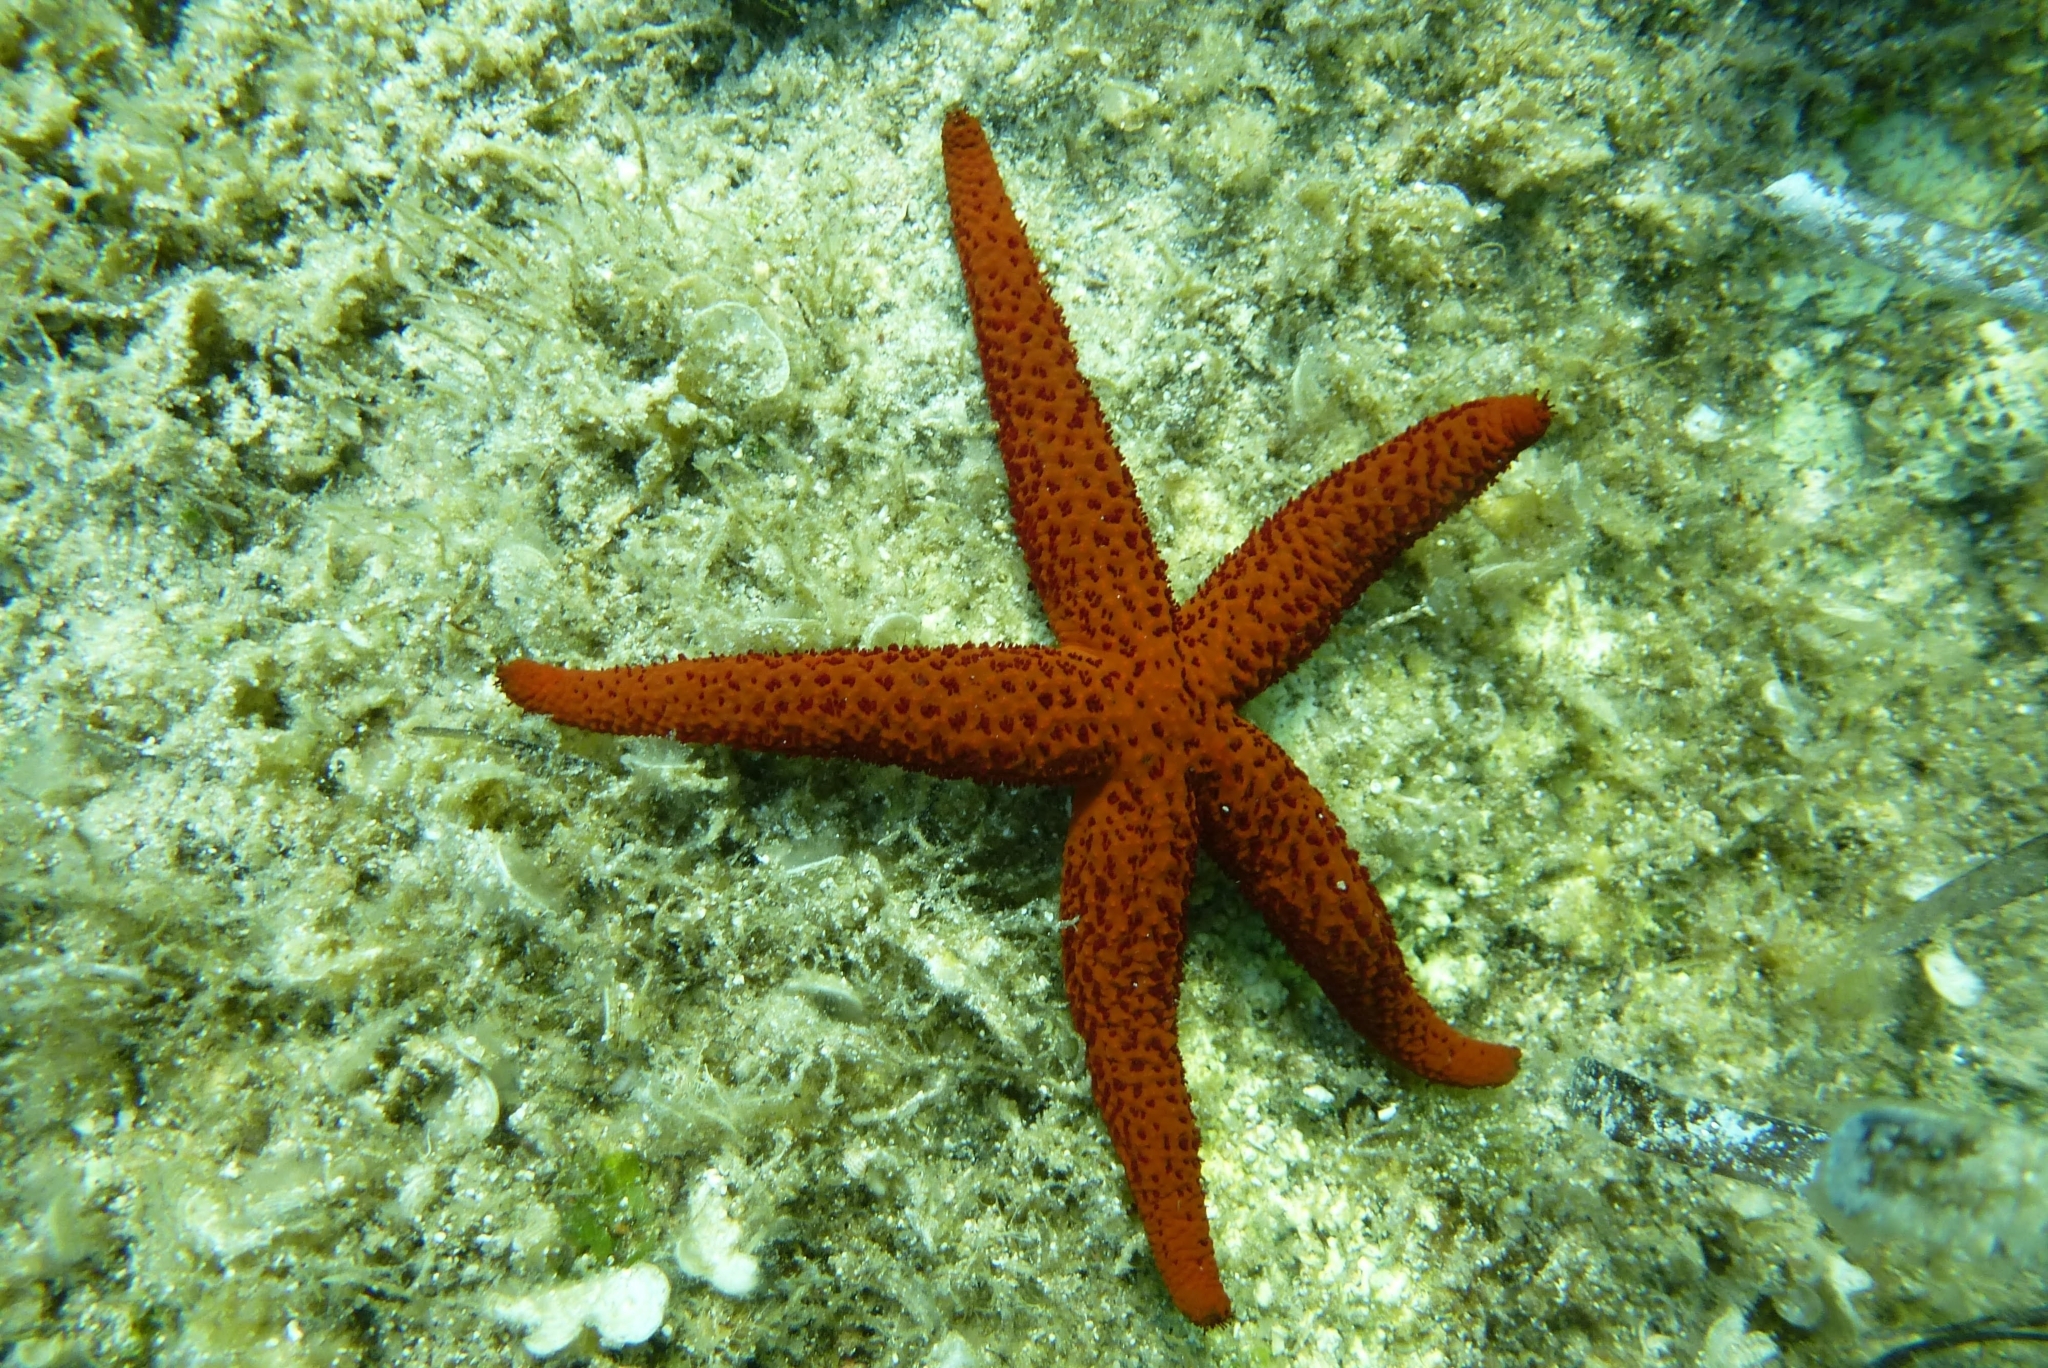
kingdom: Animalia
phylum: Echinodermata
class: Asteroidea
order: Spinulosida
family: Echinasteridae
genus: Echinaster
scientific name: Echinaster sepositus
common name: Red starfish
